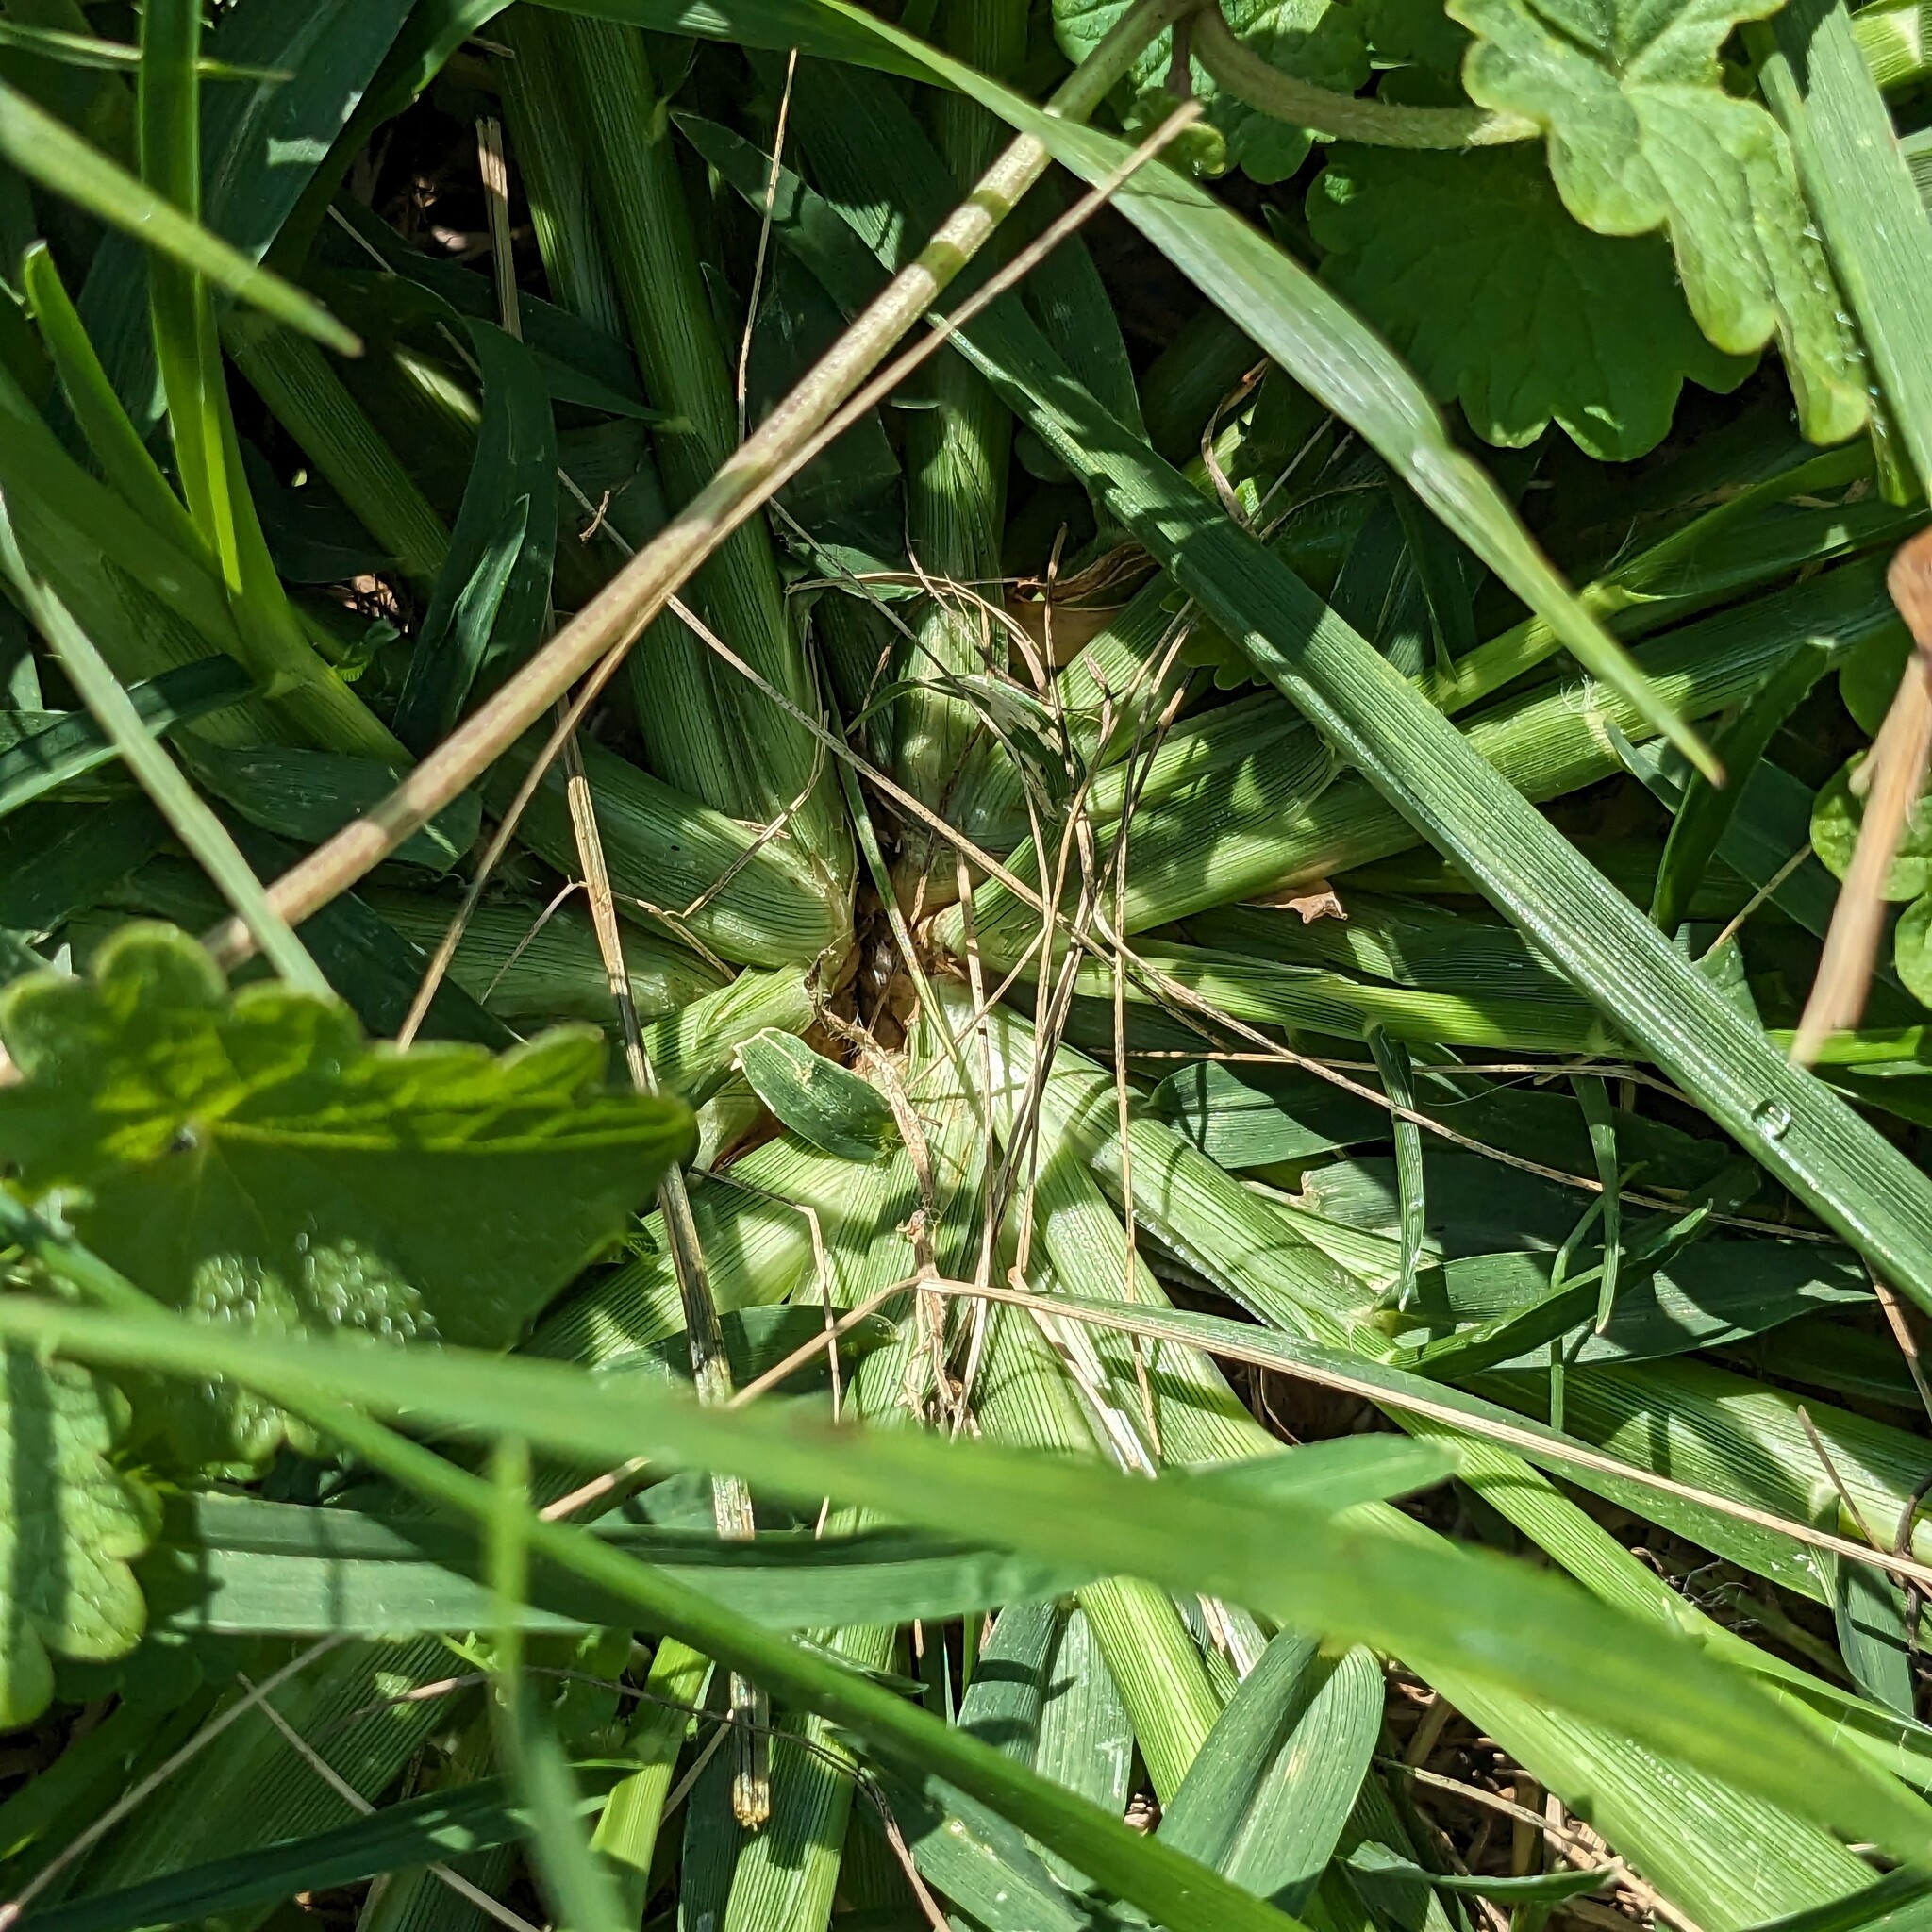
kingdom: Plantae
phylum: Tracheophyta
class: Liliopsida
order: Poales
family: Poaceae
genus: Eleusine
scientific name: Eleusine indica
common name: Yard-grass
